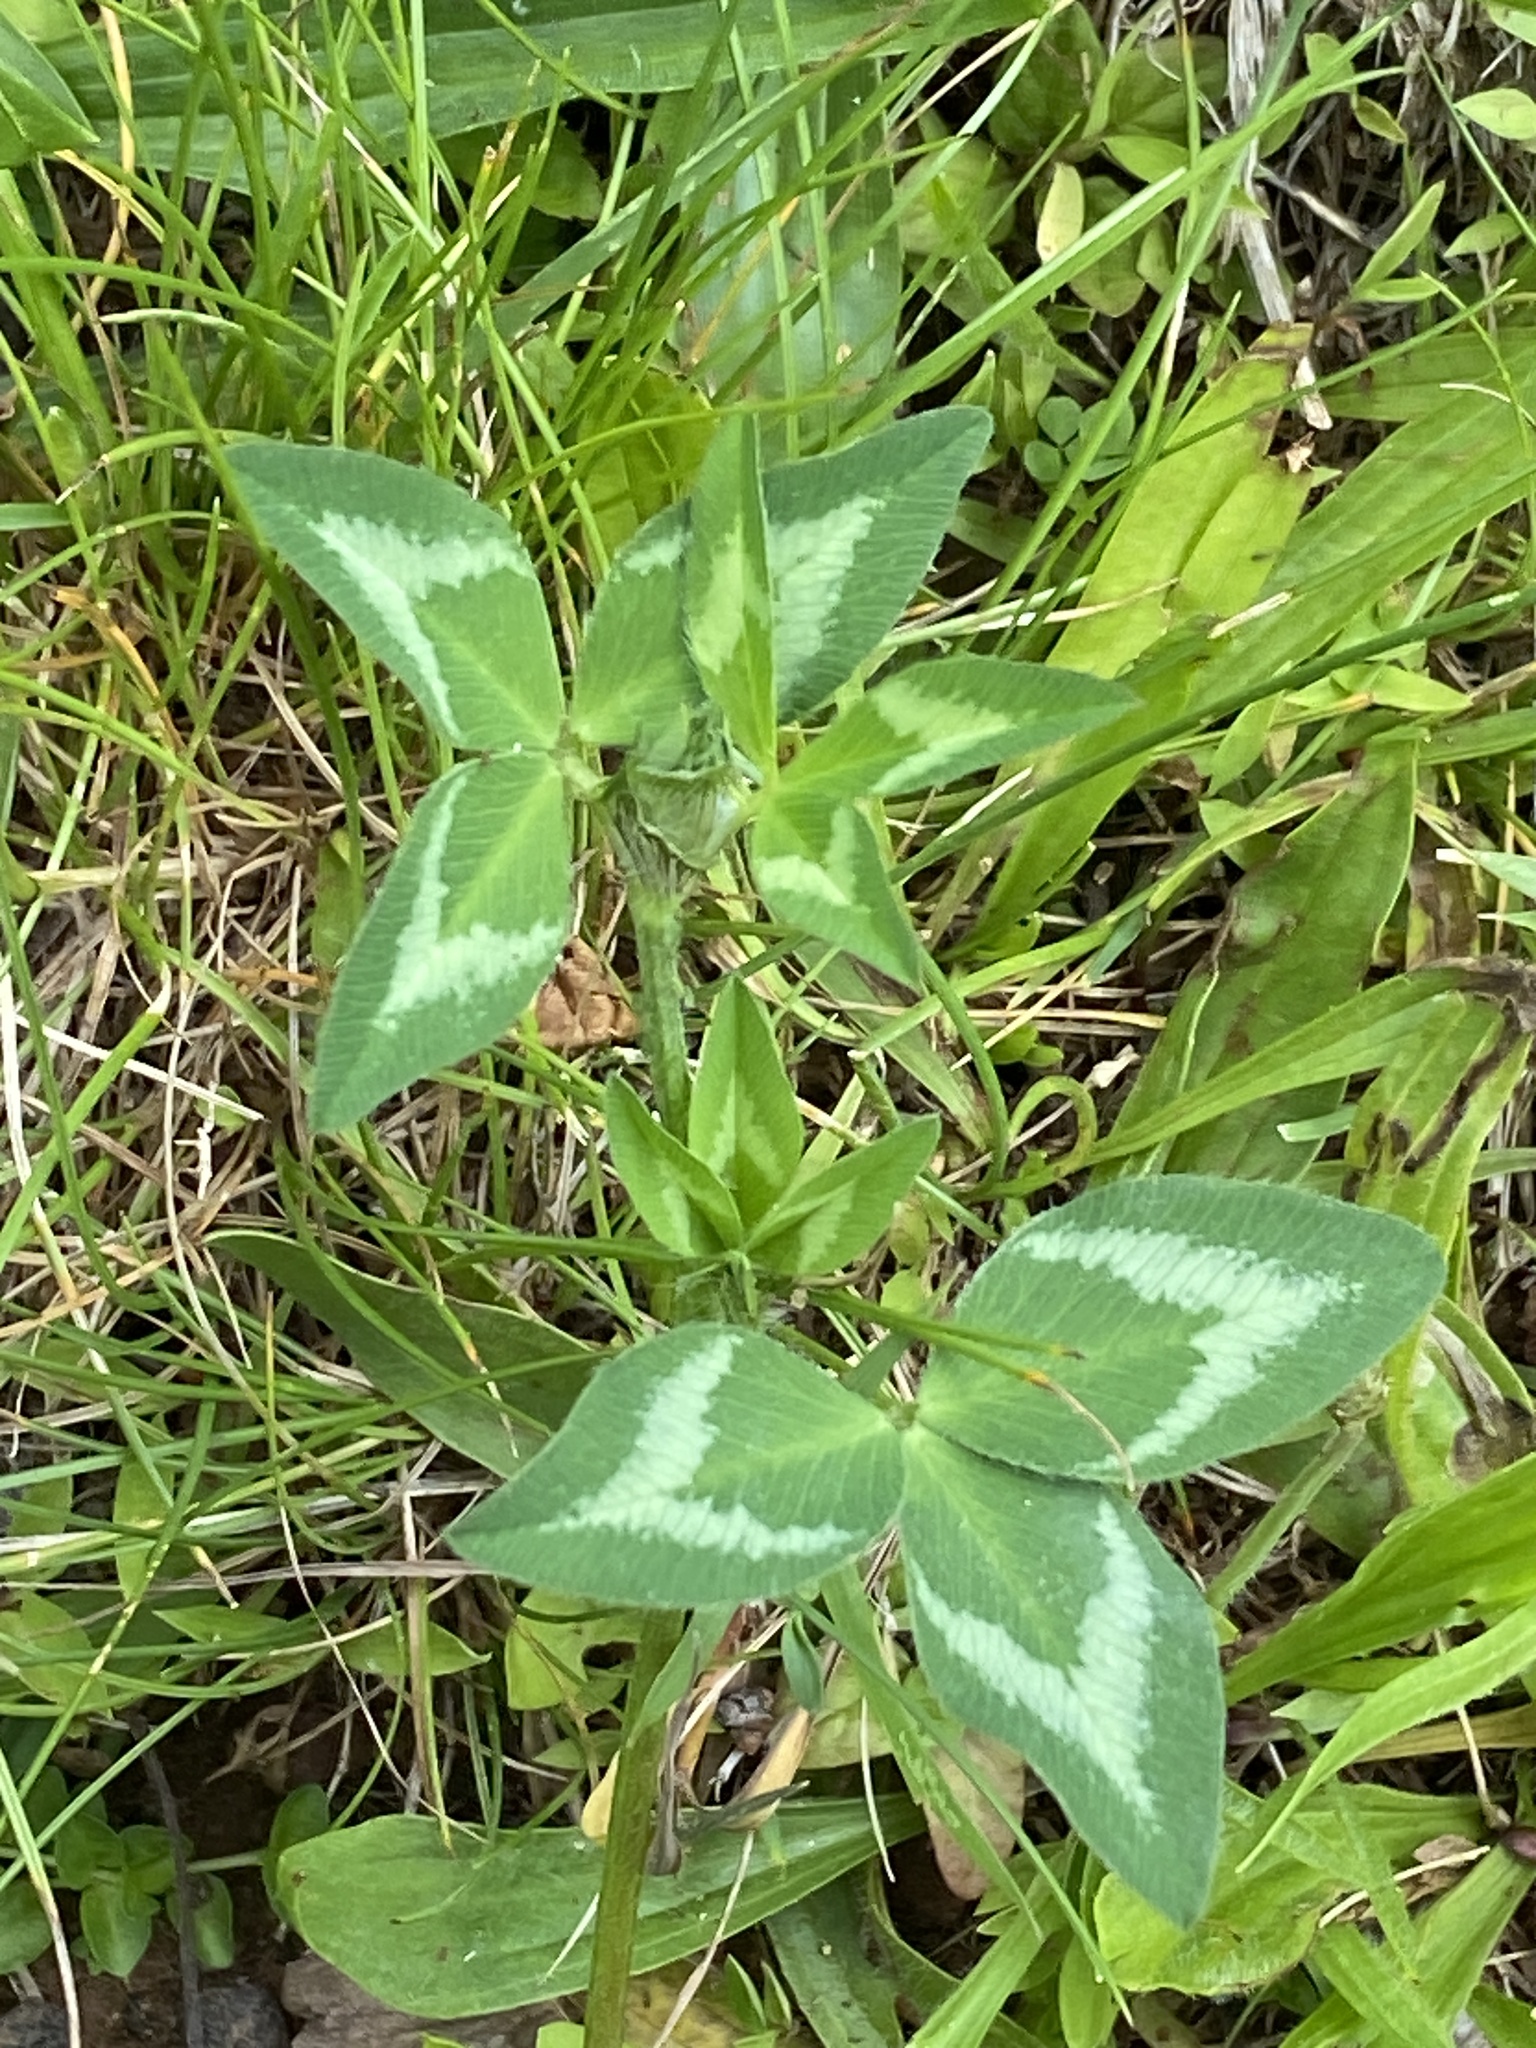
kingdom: Plantae
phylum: Tracheophyta
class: Magnoliopsida
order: Fabales
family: Fabaceae
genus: Trifolium
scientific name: Trifolium pratense
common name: Red clover
